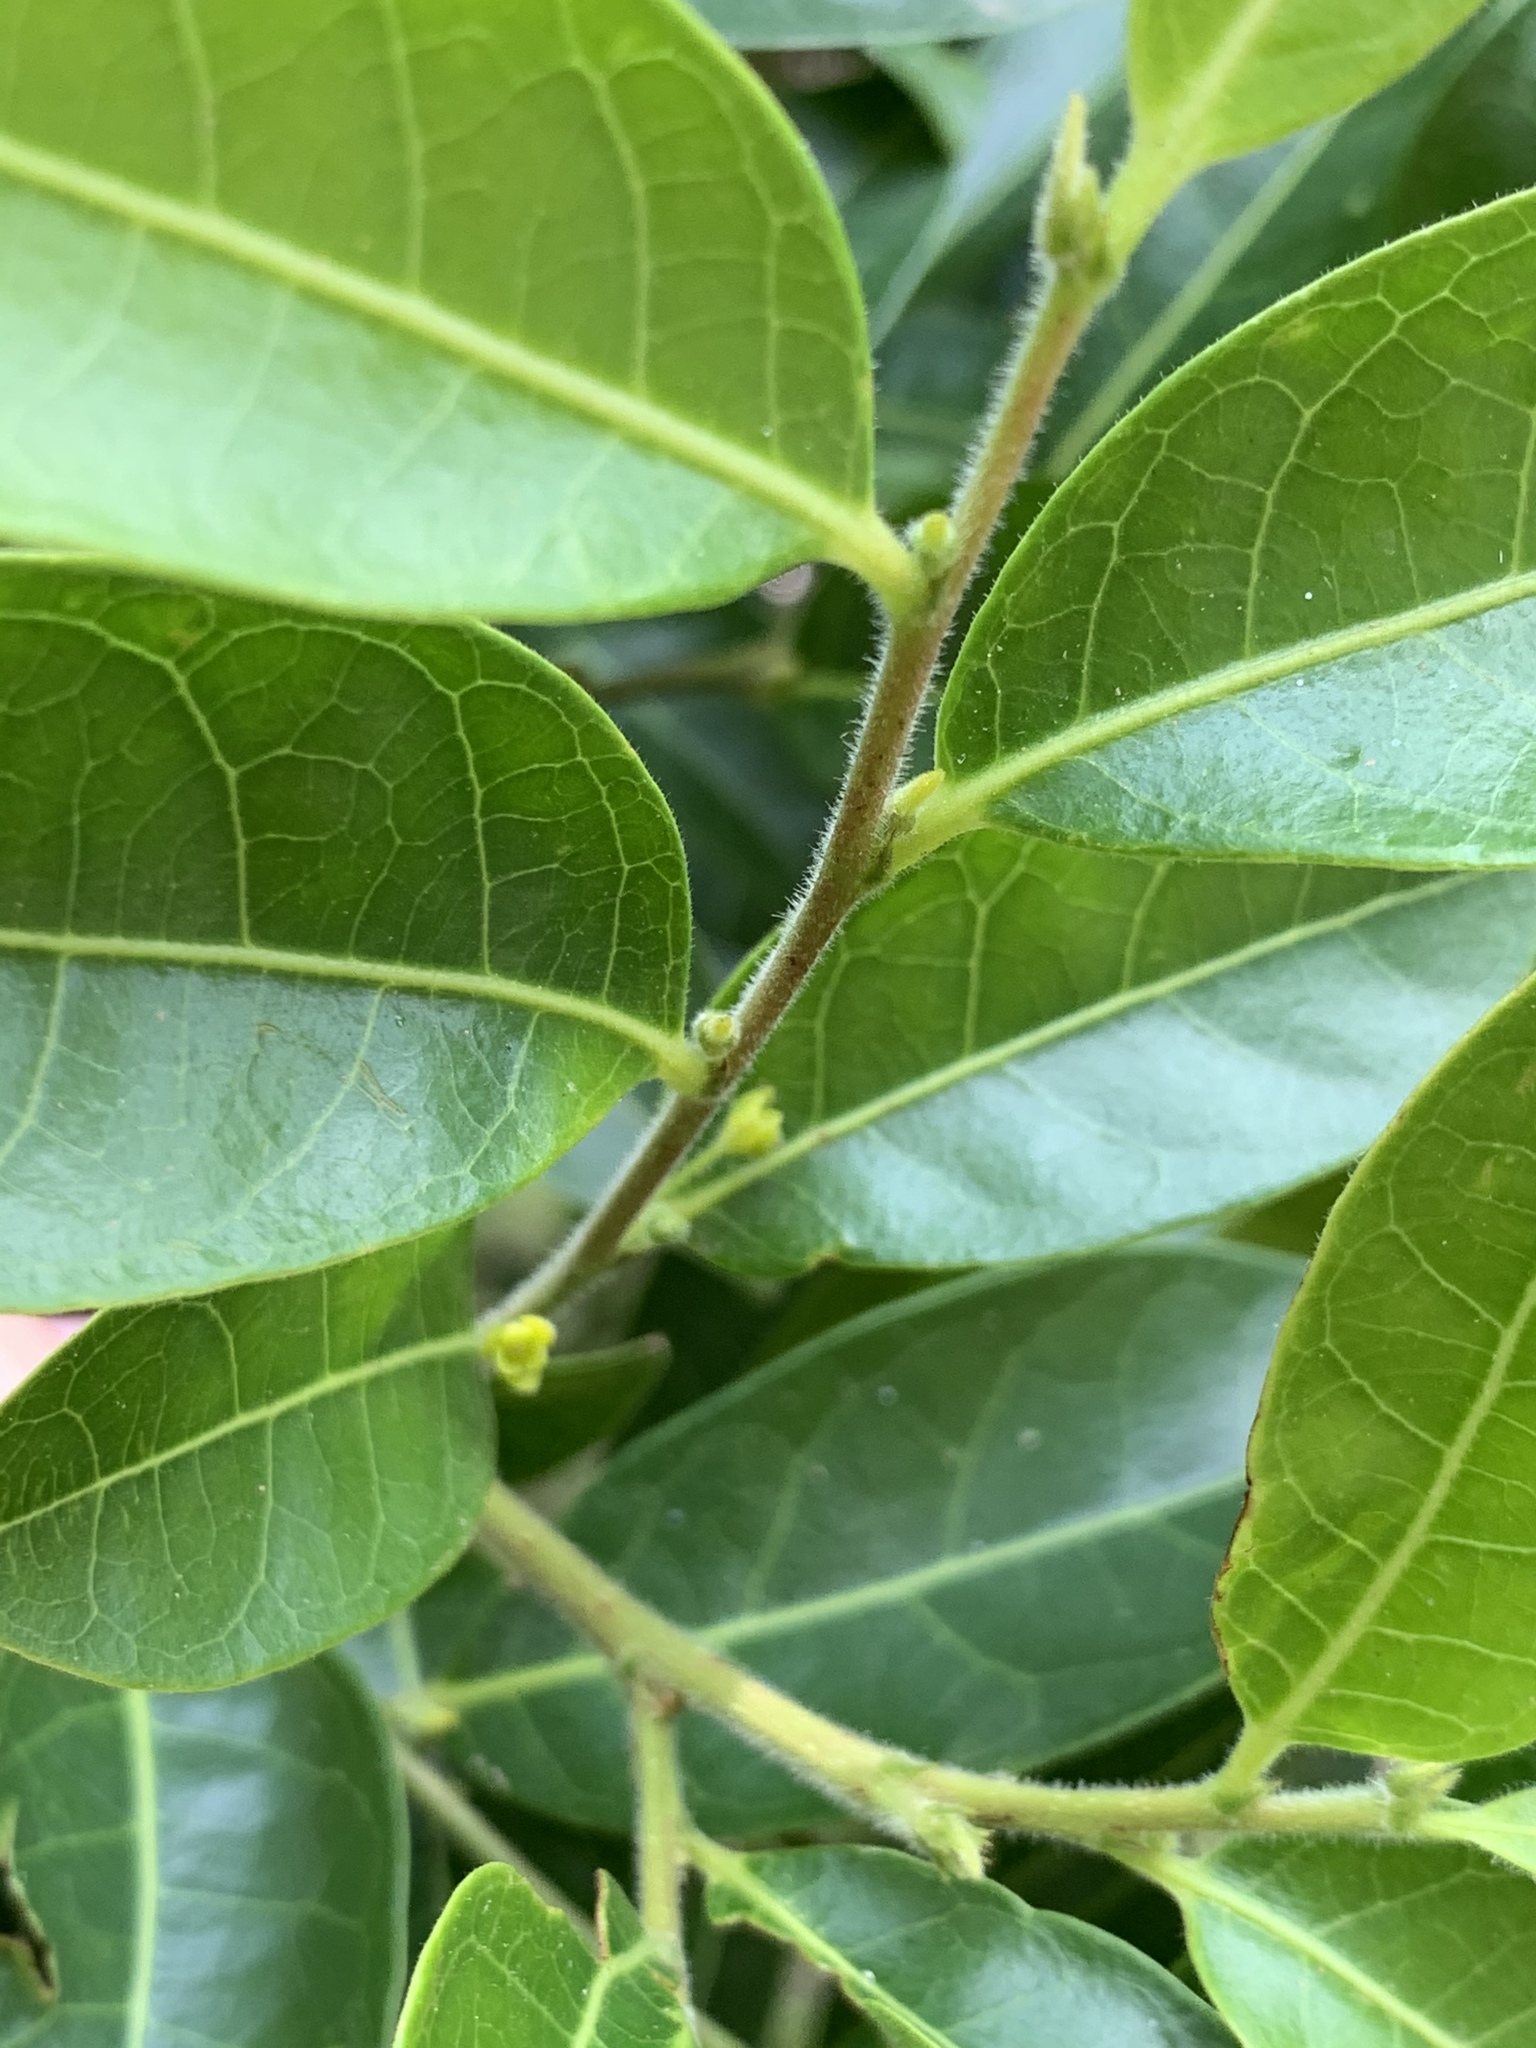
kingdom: Plantae
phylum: Tracheophyta
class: Magnoliopsida
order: Malpighiales
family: Phyllanthaceae
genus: Glochidion
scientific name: Glochidion ferdinandi
